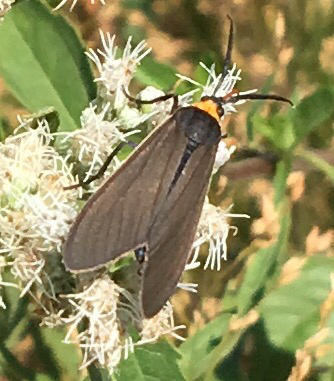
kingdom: Animalia
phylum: Arthropoda
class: Insecta
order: Lepidoptera
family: Erebidae
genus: Cisseps
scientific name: Cisseps fulvicollis
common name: Yellow-collared scape moth
